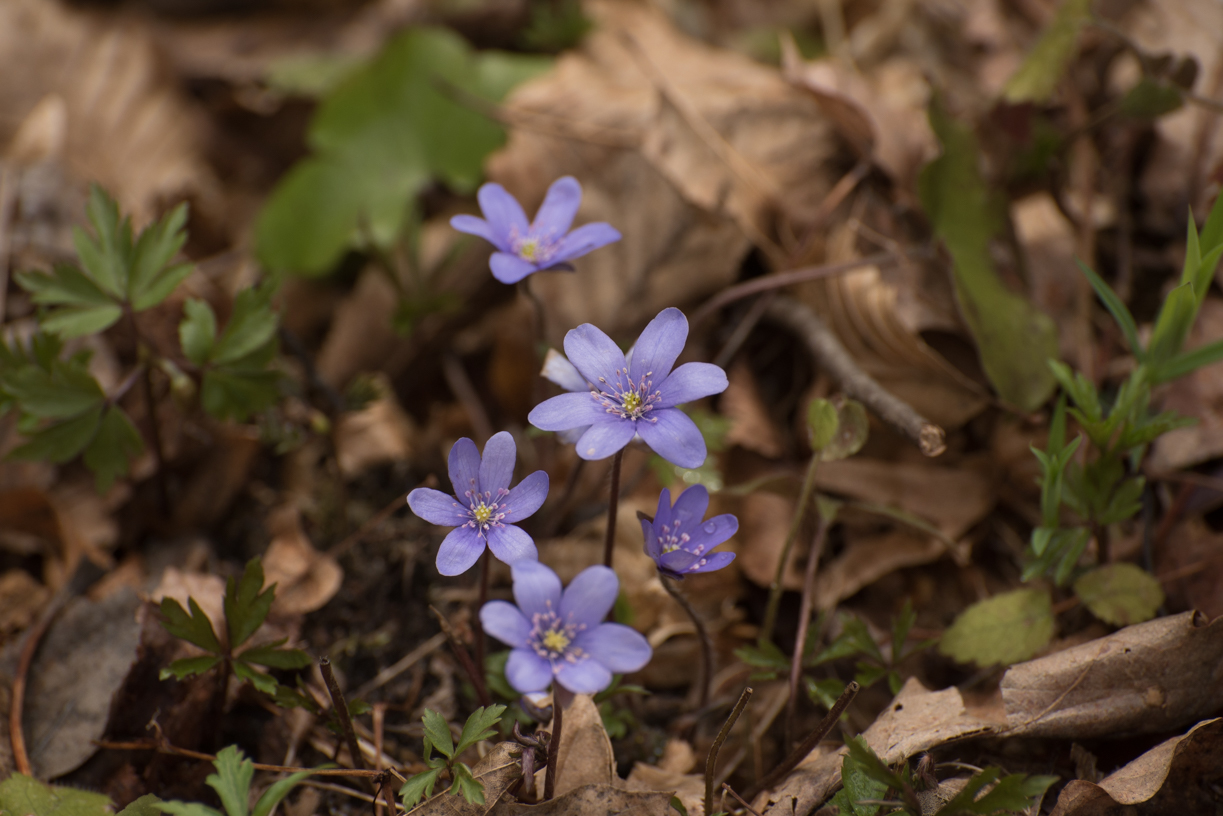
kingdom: Plantae
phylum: Tracheophyta
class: Magnoliopsida
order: Ranunculales
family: Ranunculaceae
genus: Hepatica
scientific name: Hepatica nobilis
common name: Liverleaf
